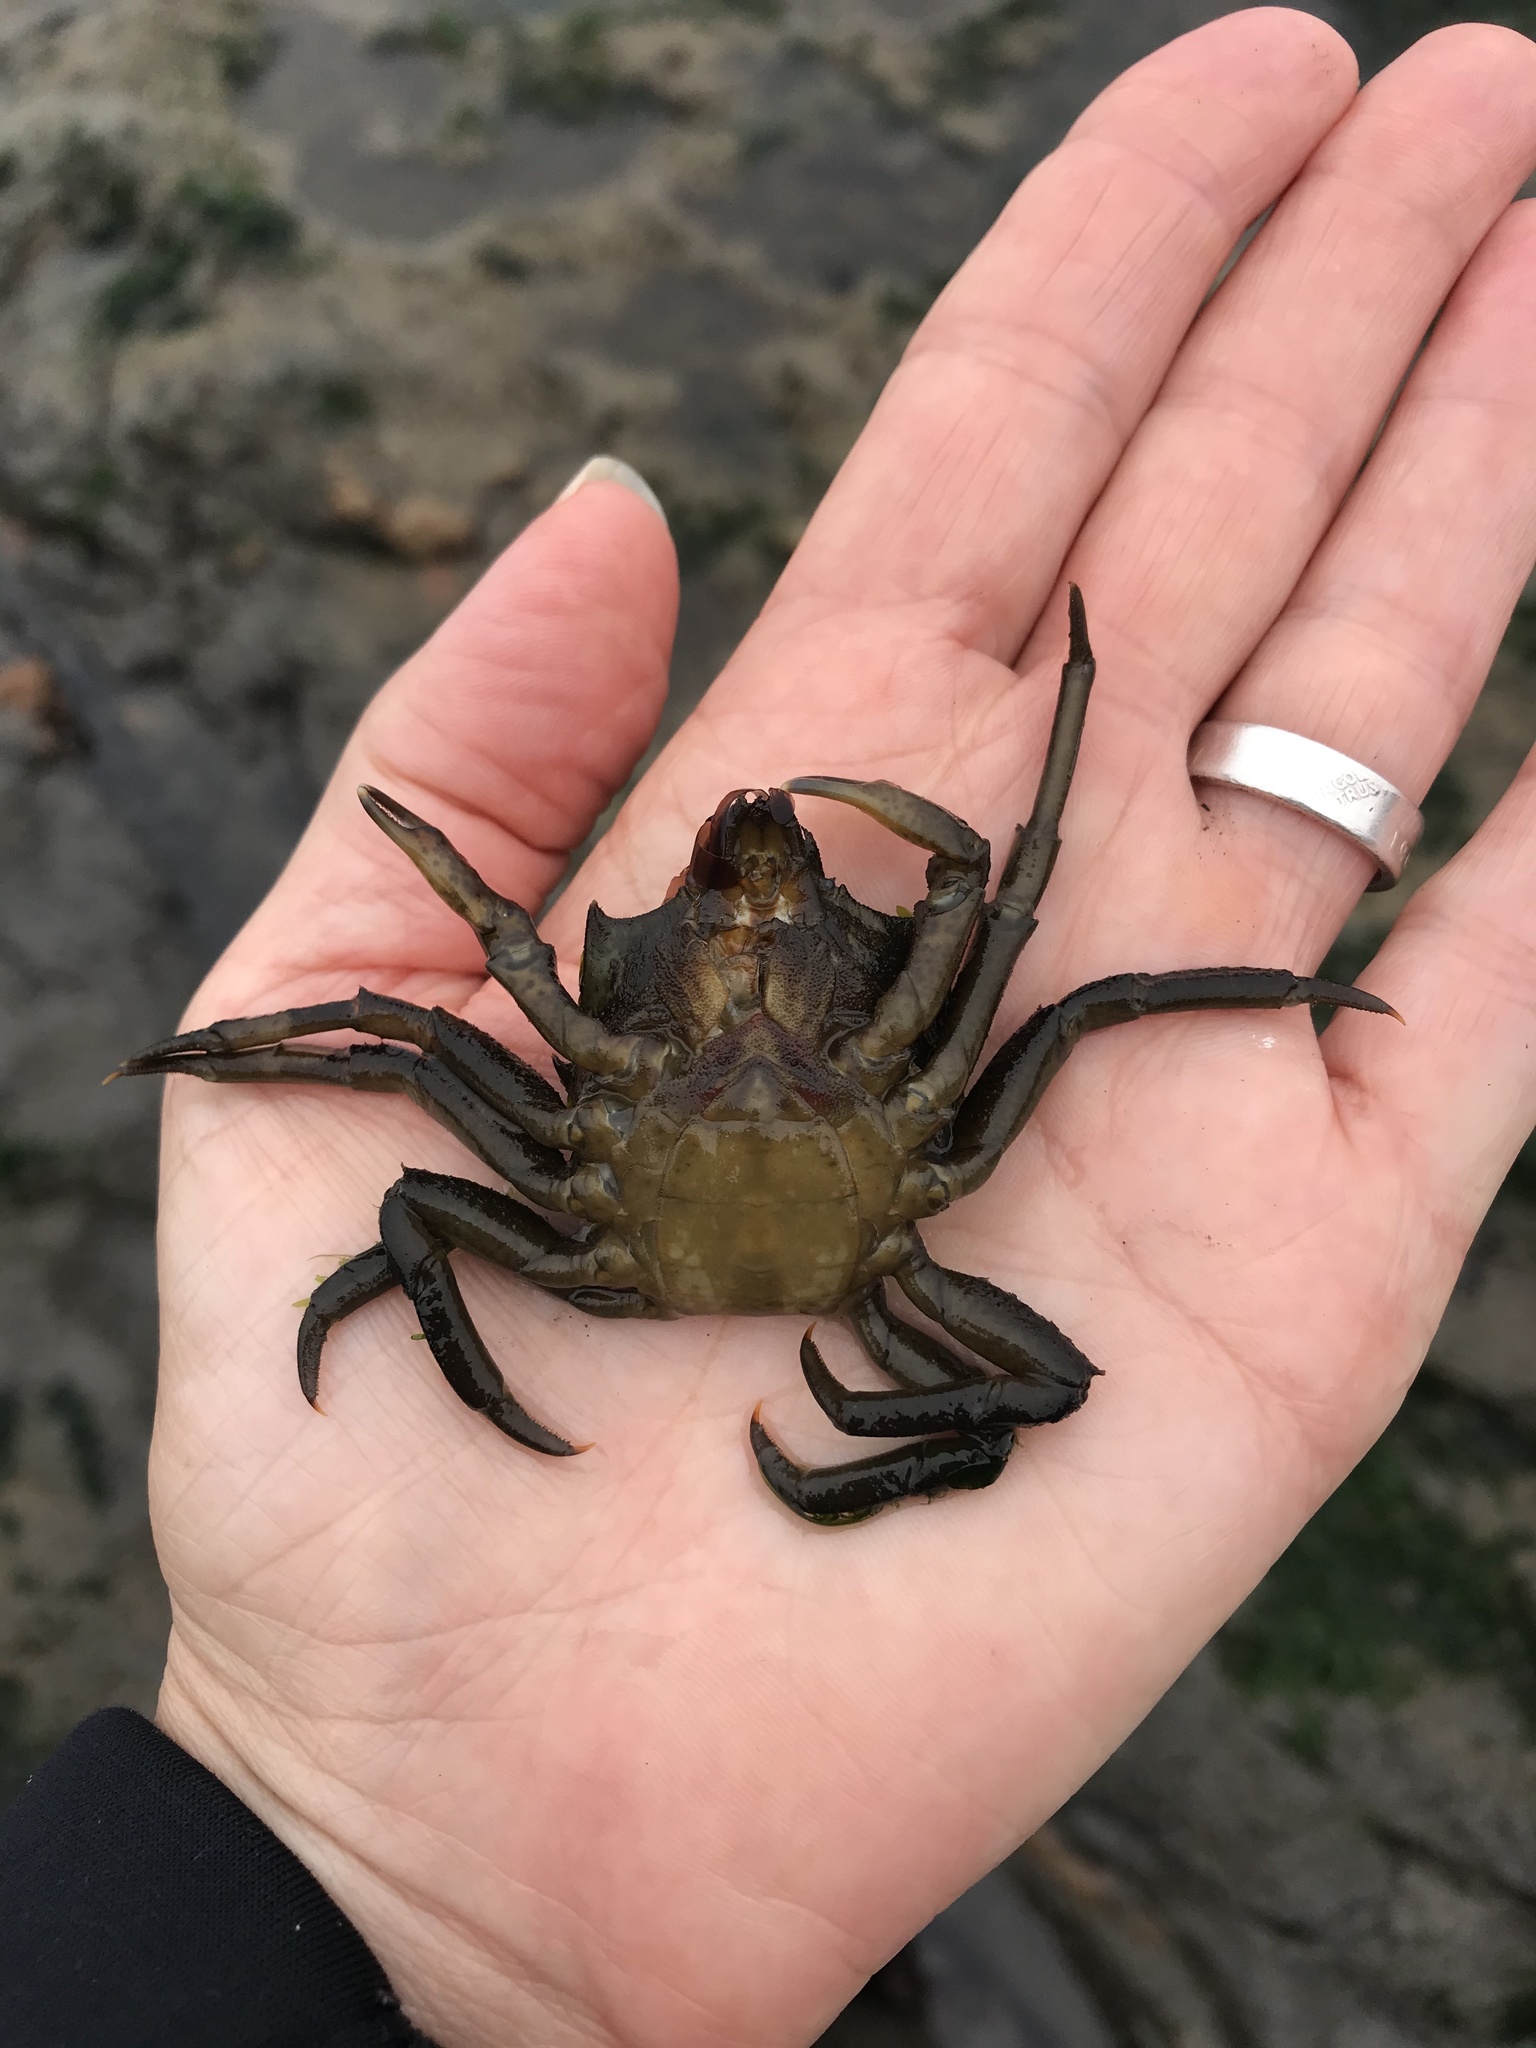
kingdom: Animalia
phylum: Arthropoda
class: Malacostraca
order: Decapoda
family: Epialtidae
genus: Pugettia
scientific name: Pugettia producta
